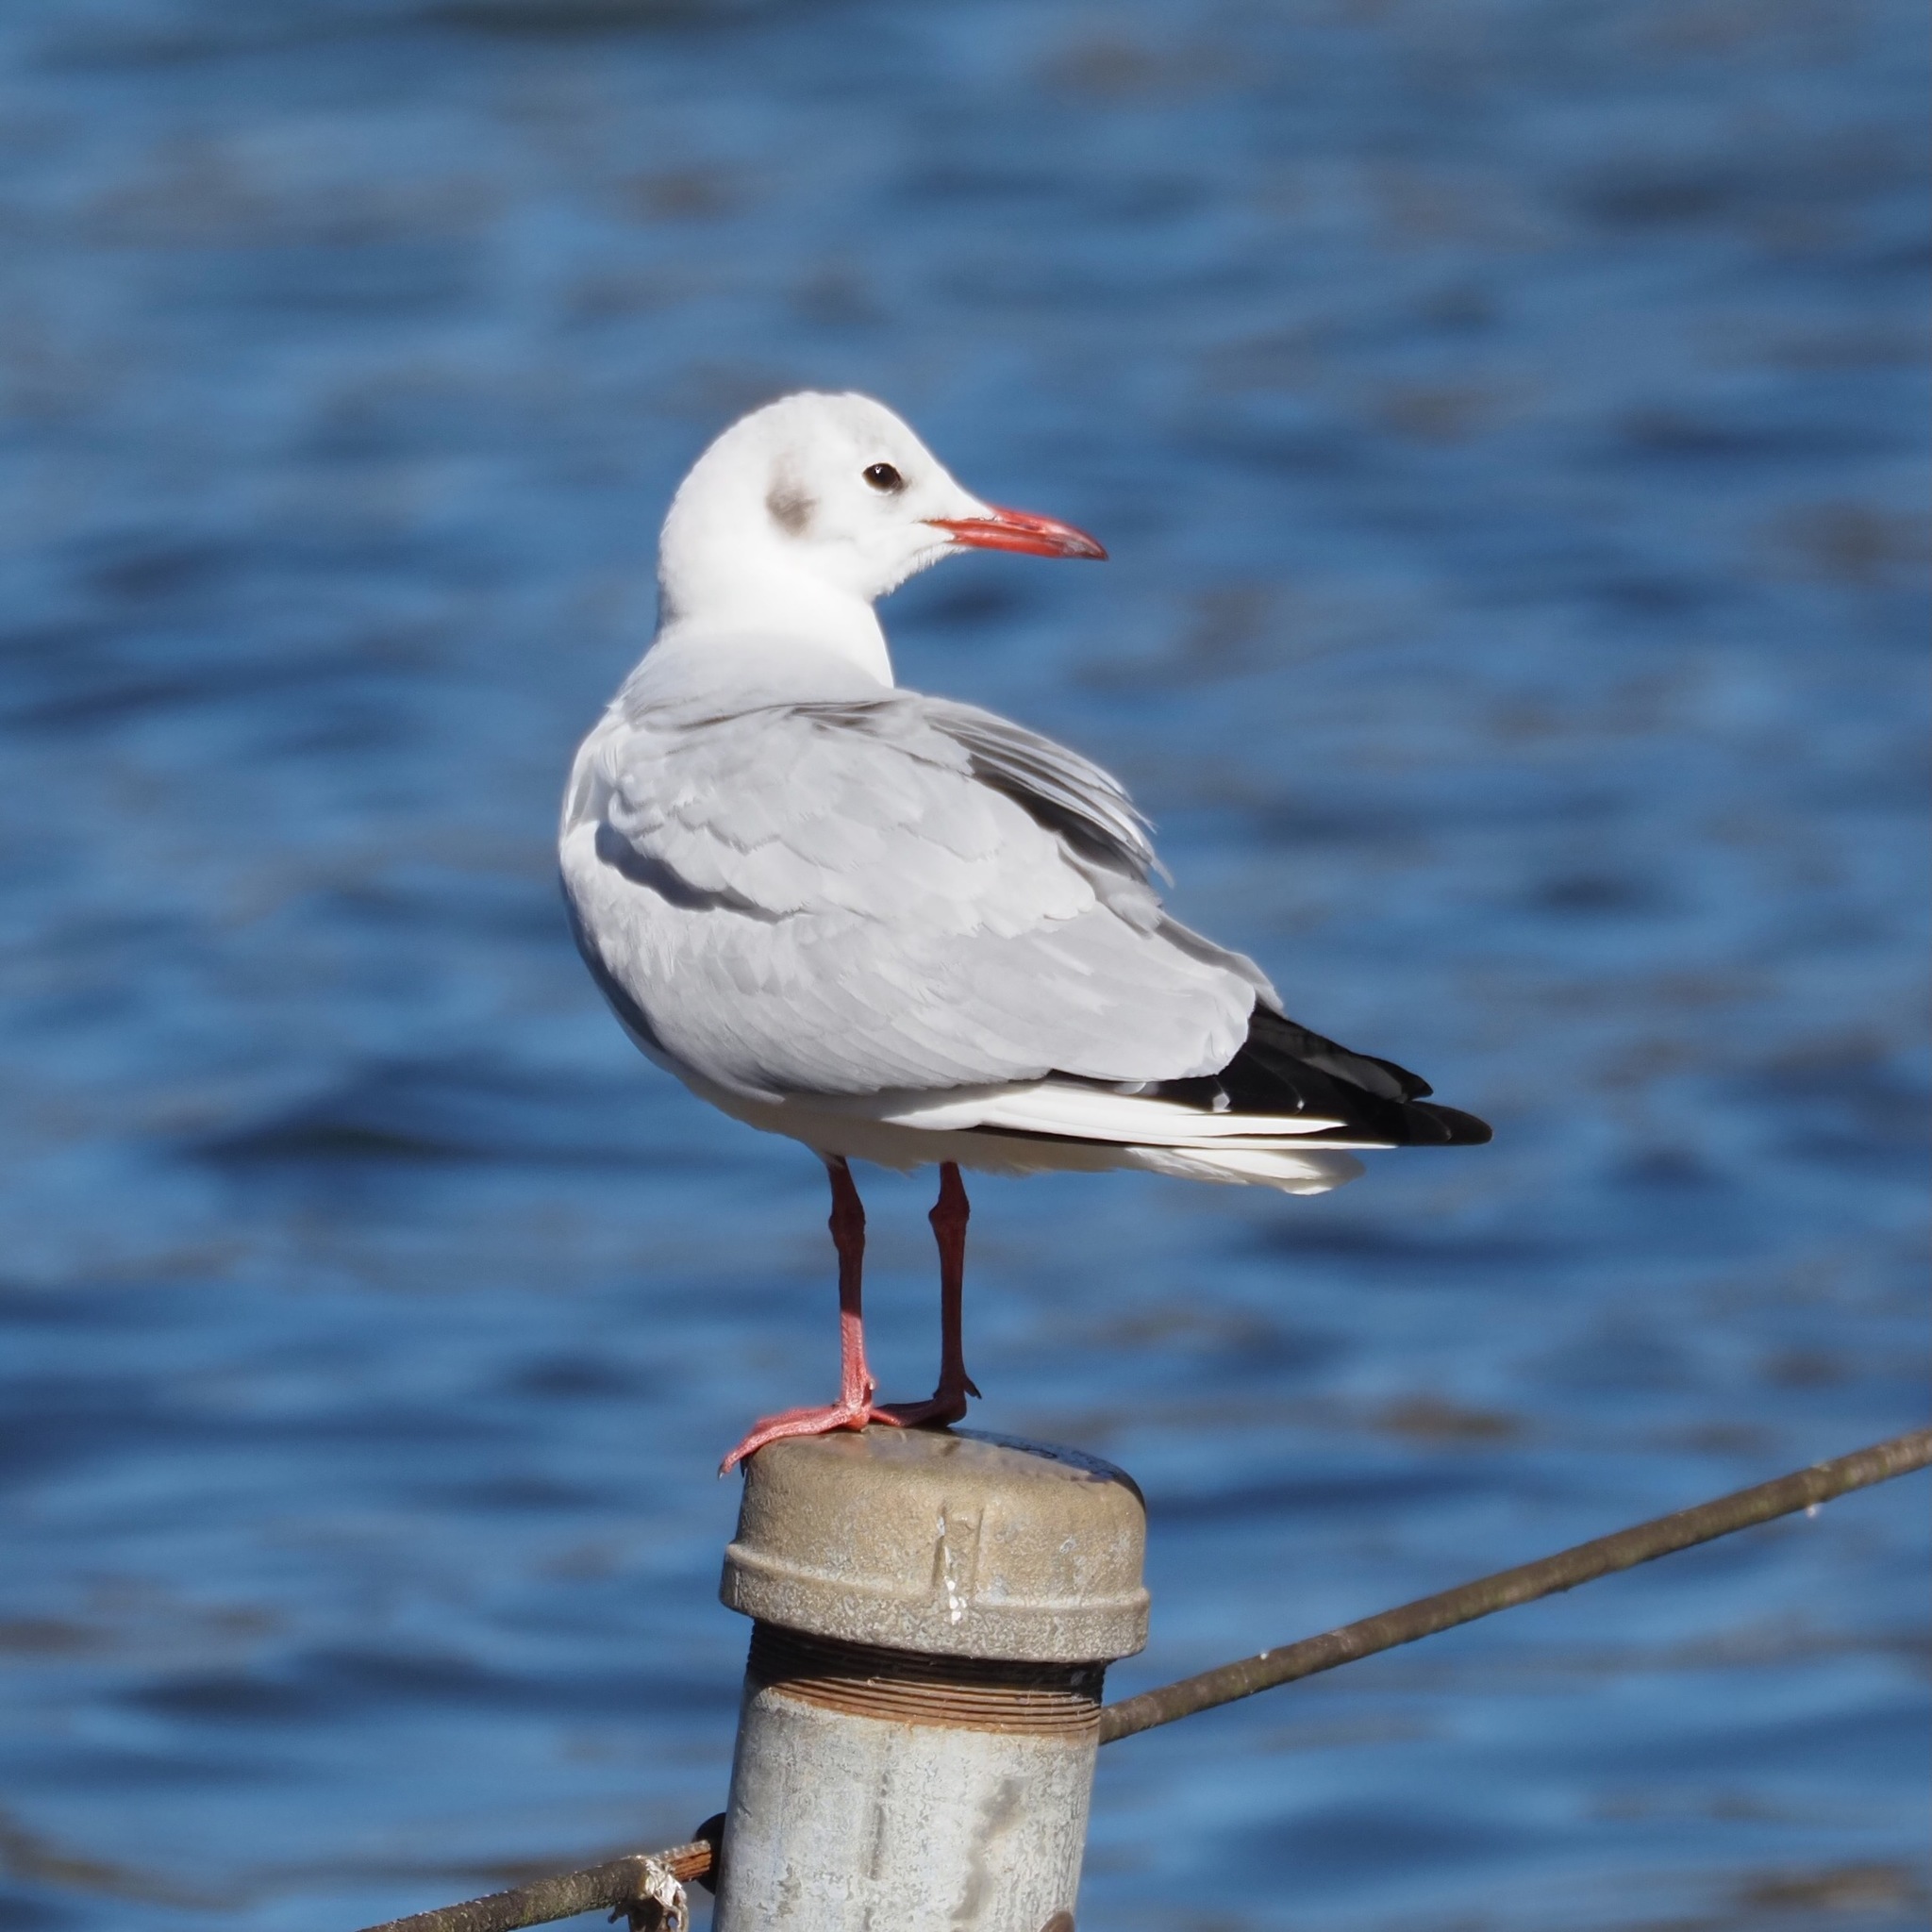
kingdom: Animalia
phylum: Chordata
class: Aves
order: Charadriiformes
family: Laridae
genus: Chroicocephalus
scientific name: Chroicocephalus ridibundus
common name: Black-headed gull
